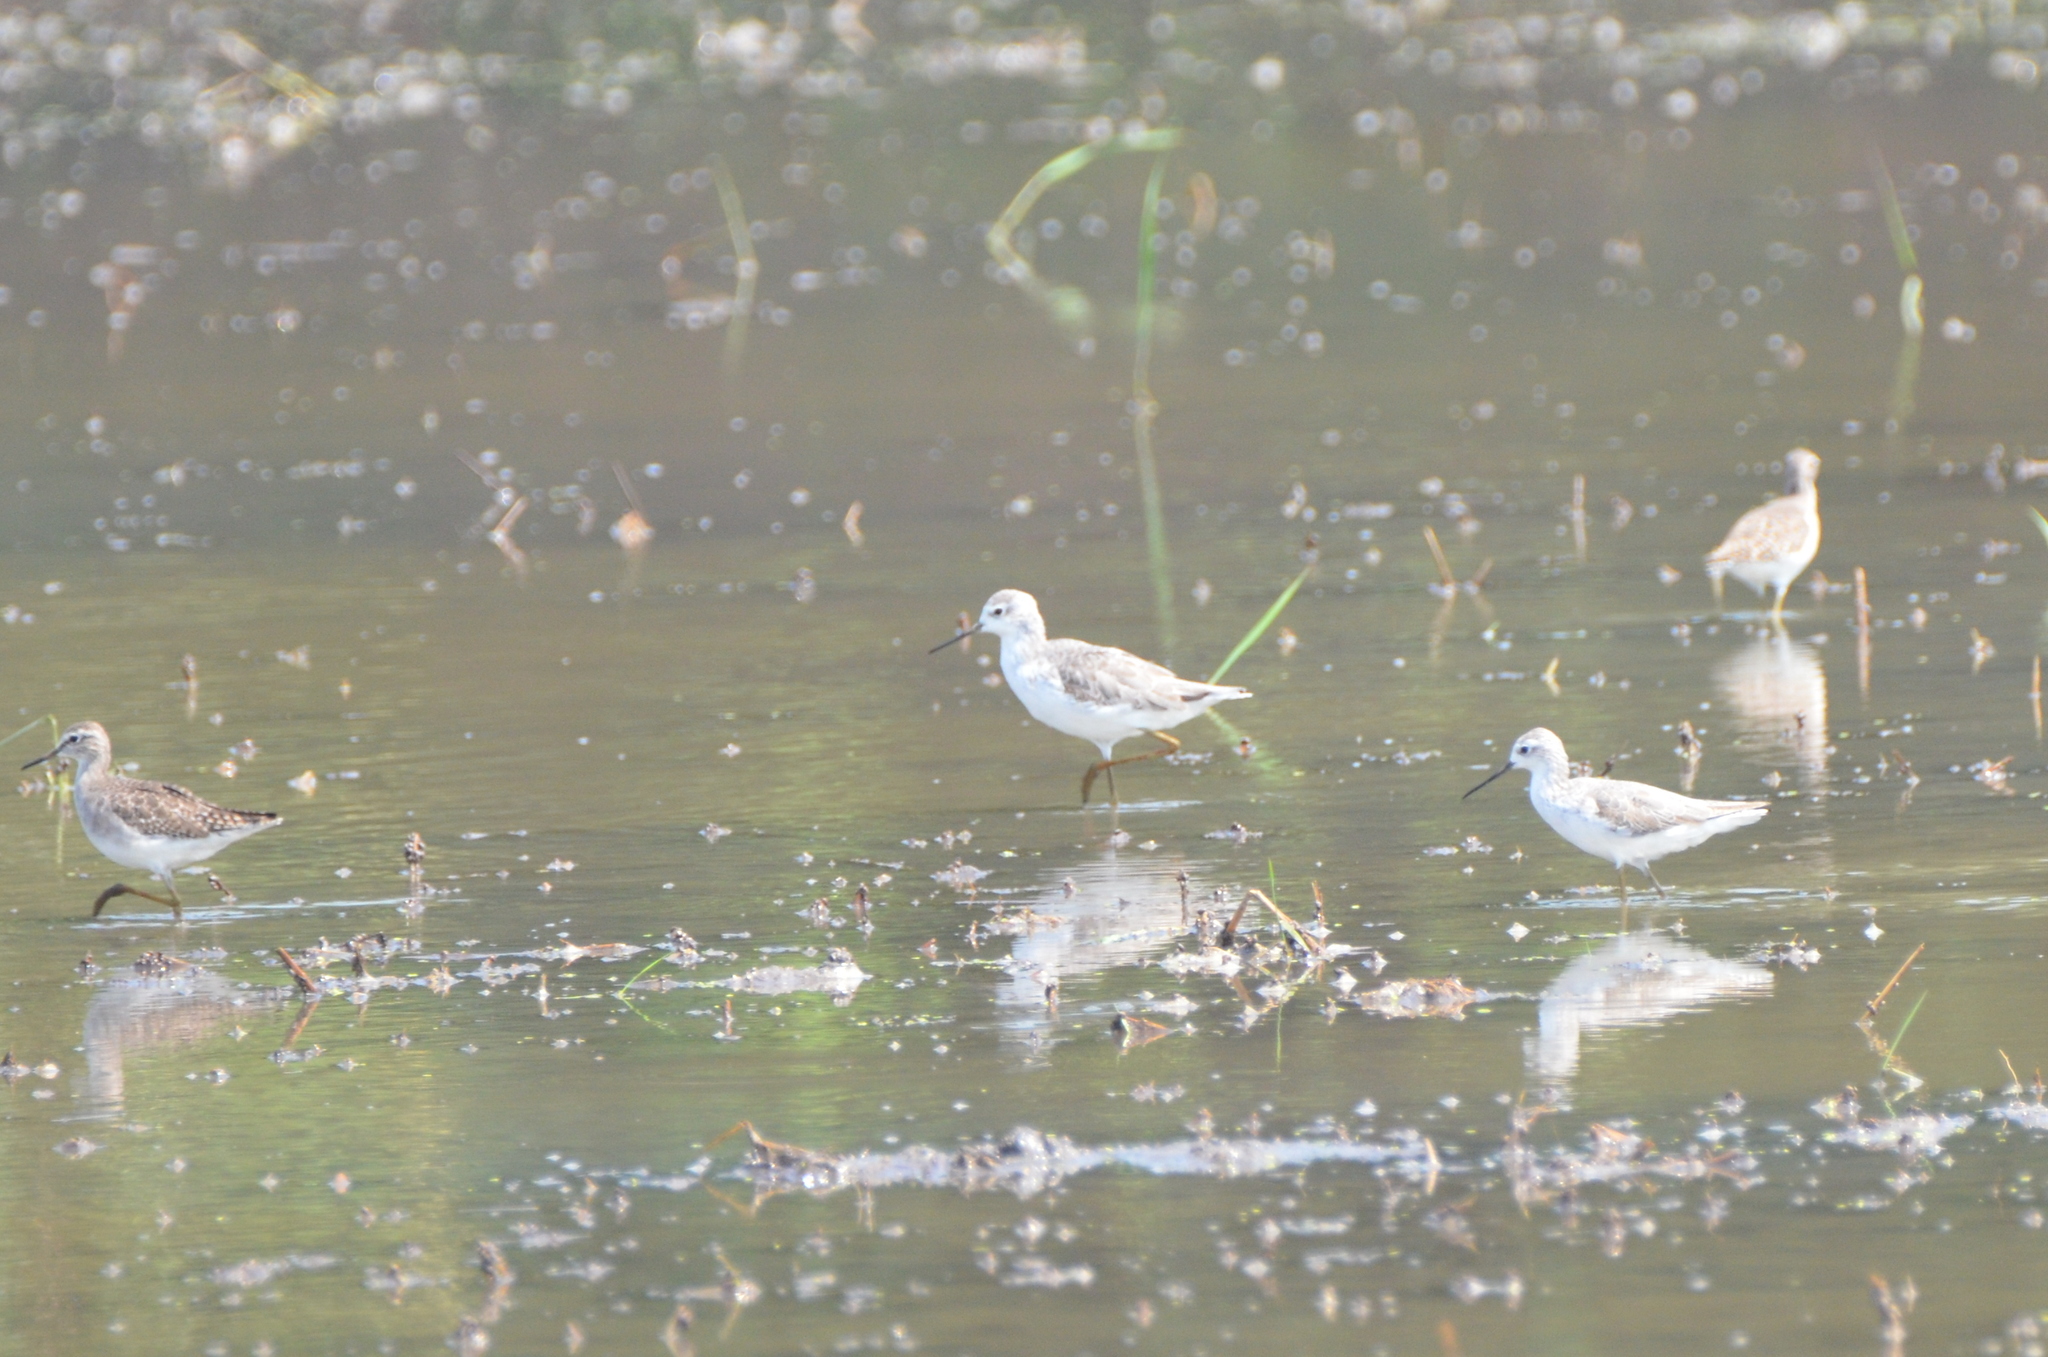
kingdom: Animalia
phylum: Chordata
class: Aves
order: Charadriiformes
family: Scolopacidae
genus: Tringa
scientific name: Tringa stagnatilis
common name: Marsh sandpiper
